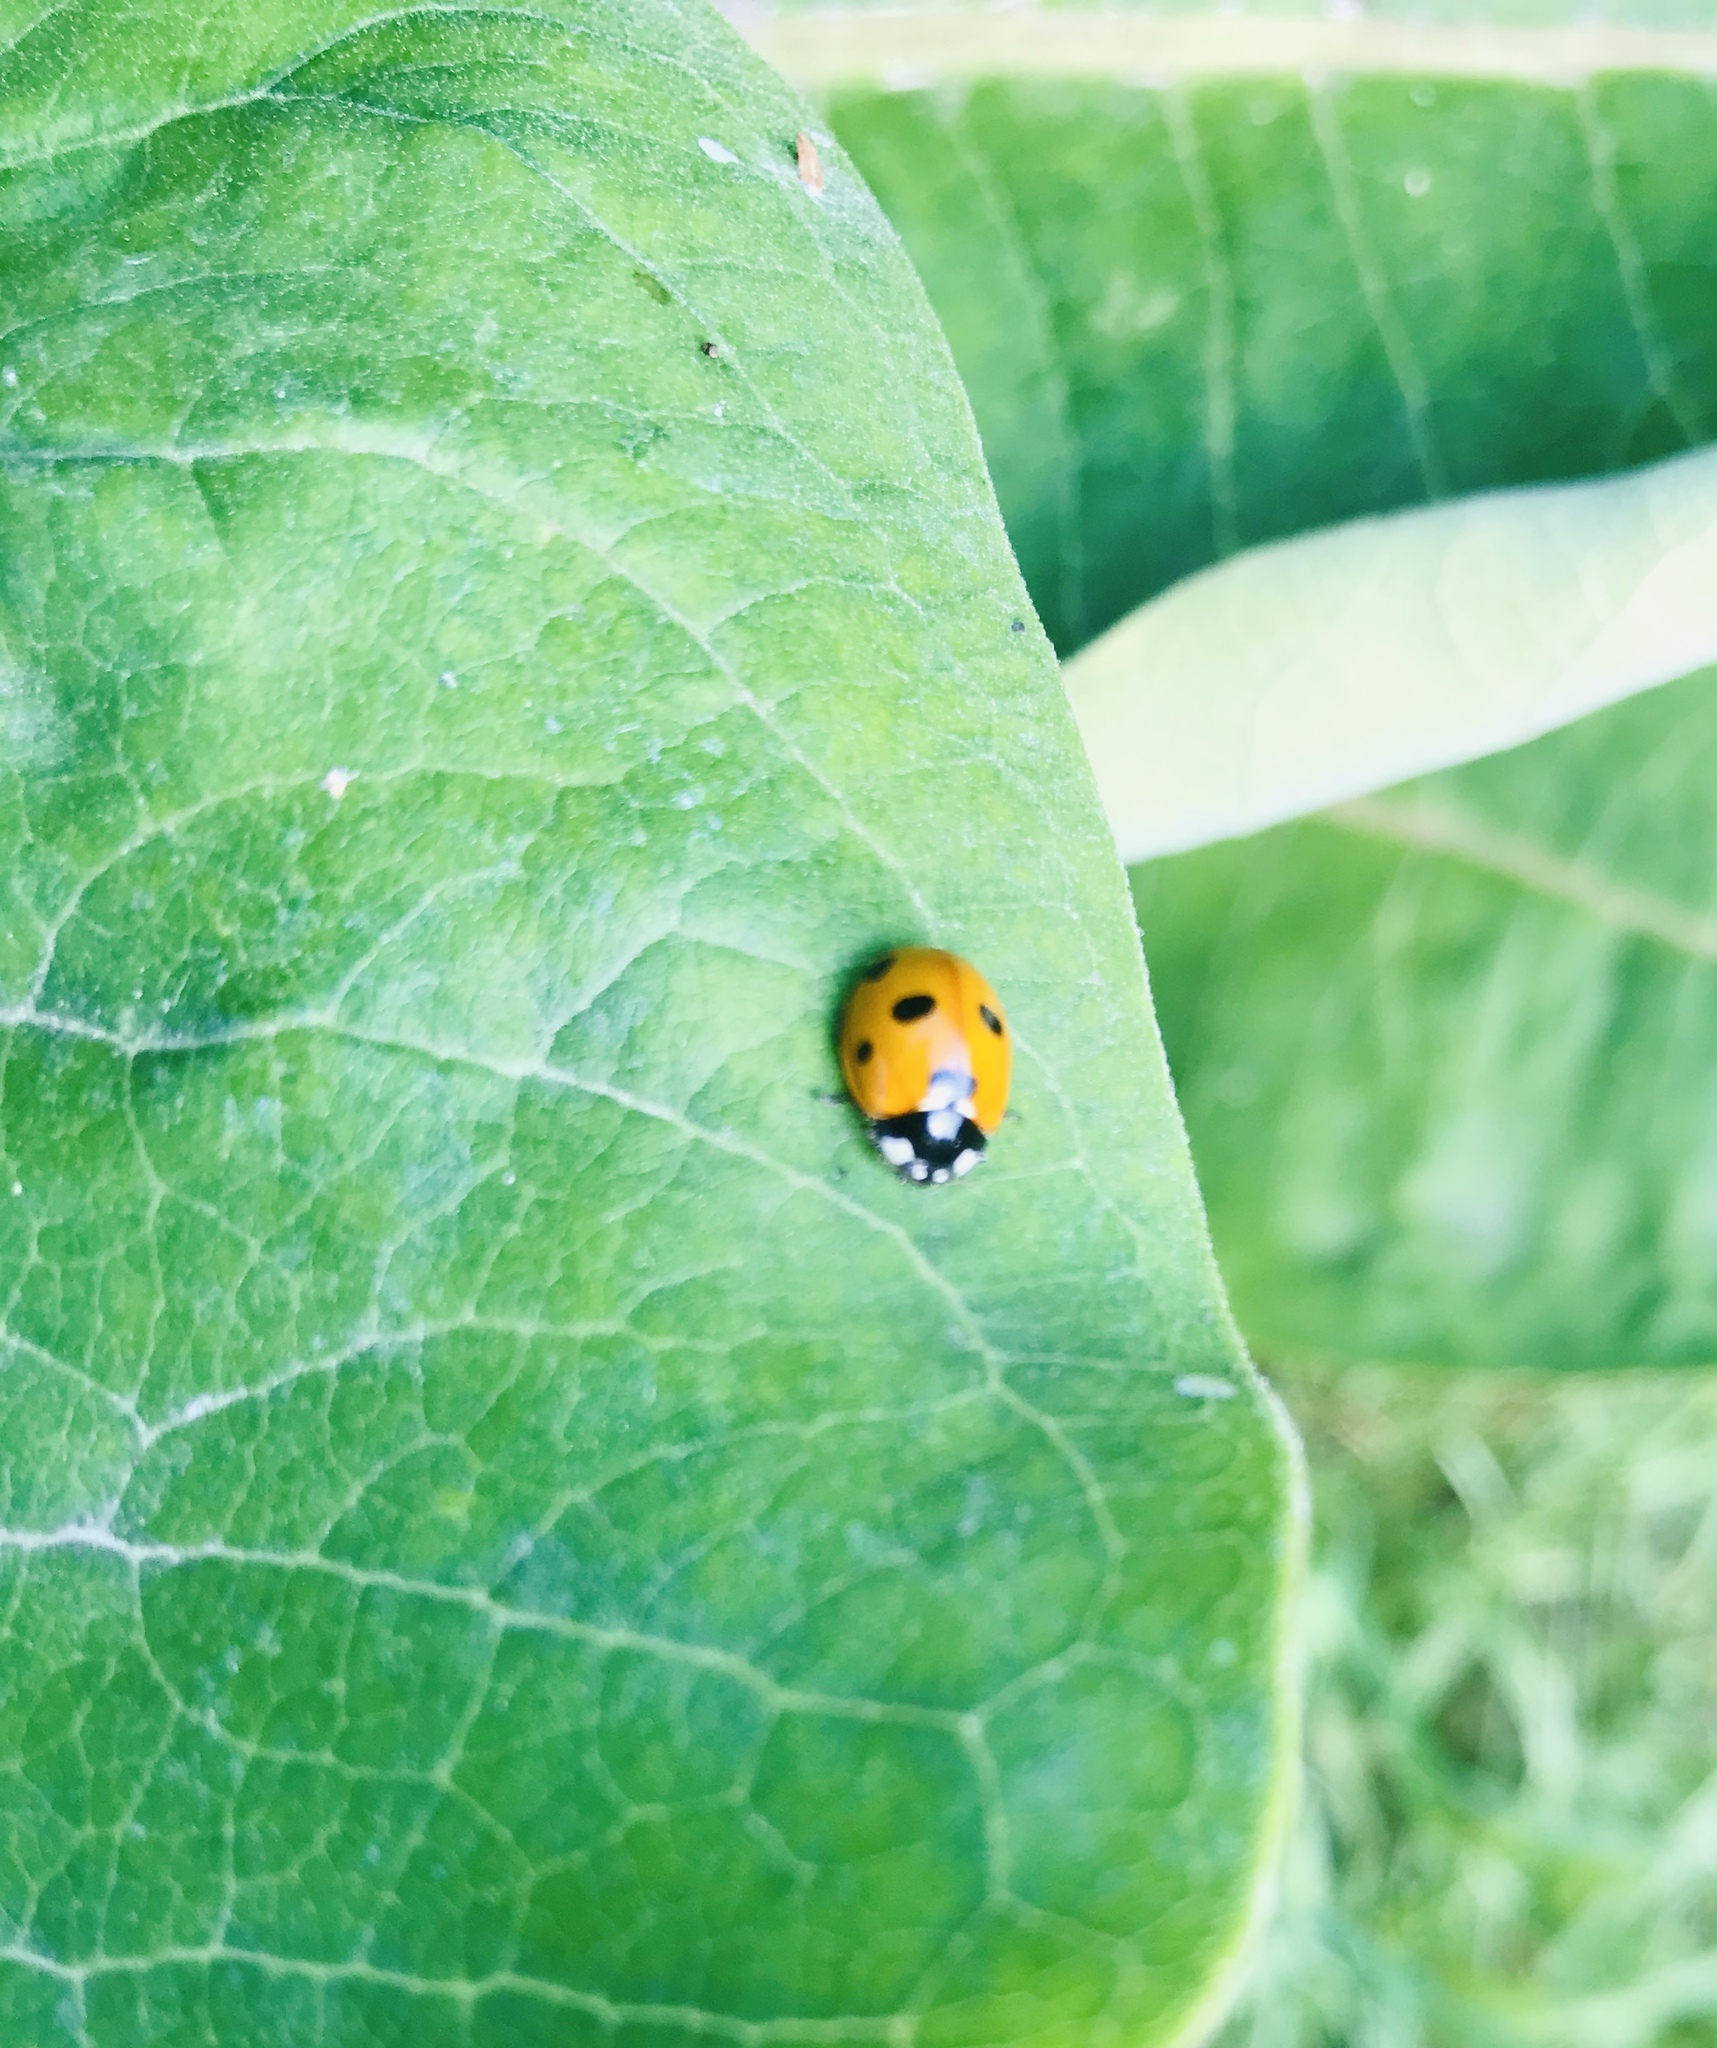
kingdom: Animalia
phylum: Arthropoda
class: Insecta
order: Coleoptera
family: Coccinellidae
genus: Coccinella
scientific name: Coccinella septempunctata
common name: Sevenspotted lady beetle
